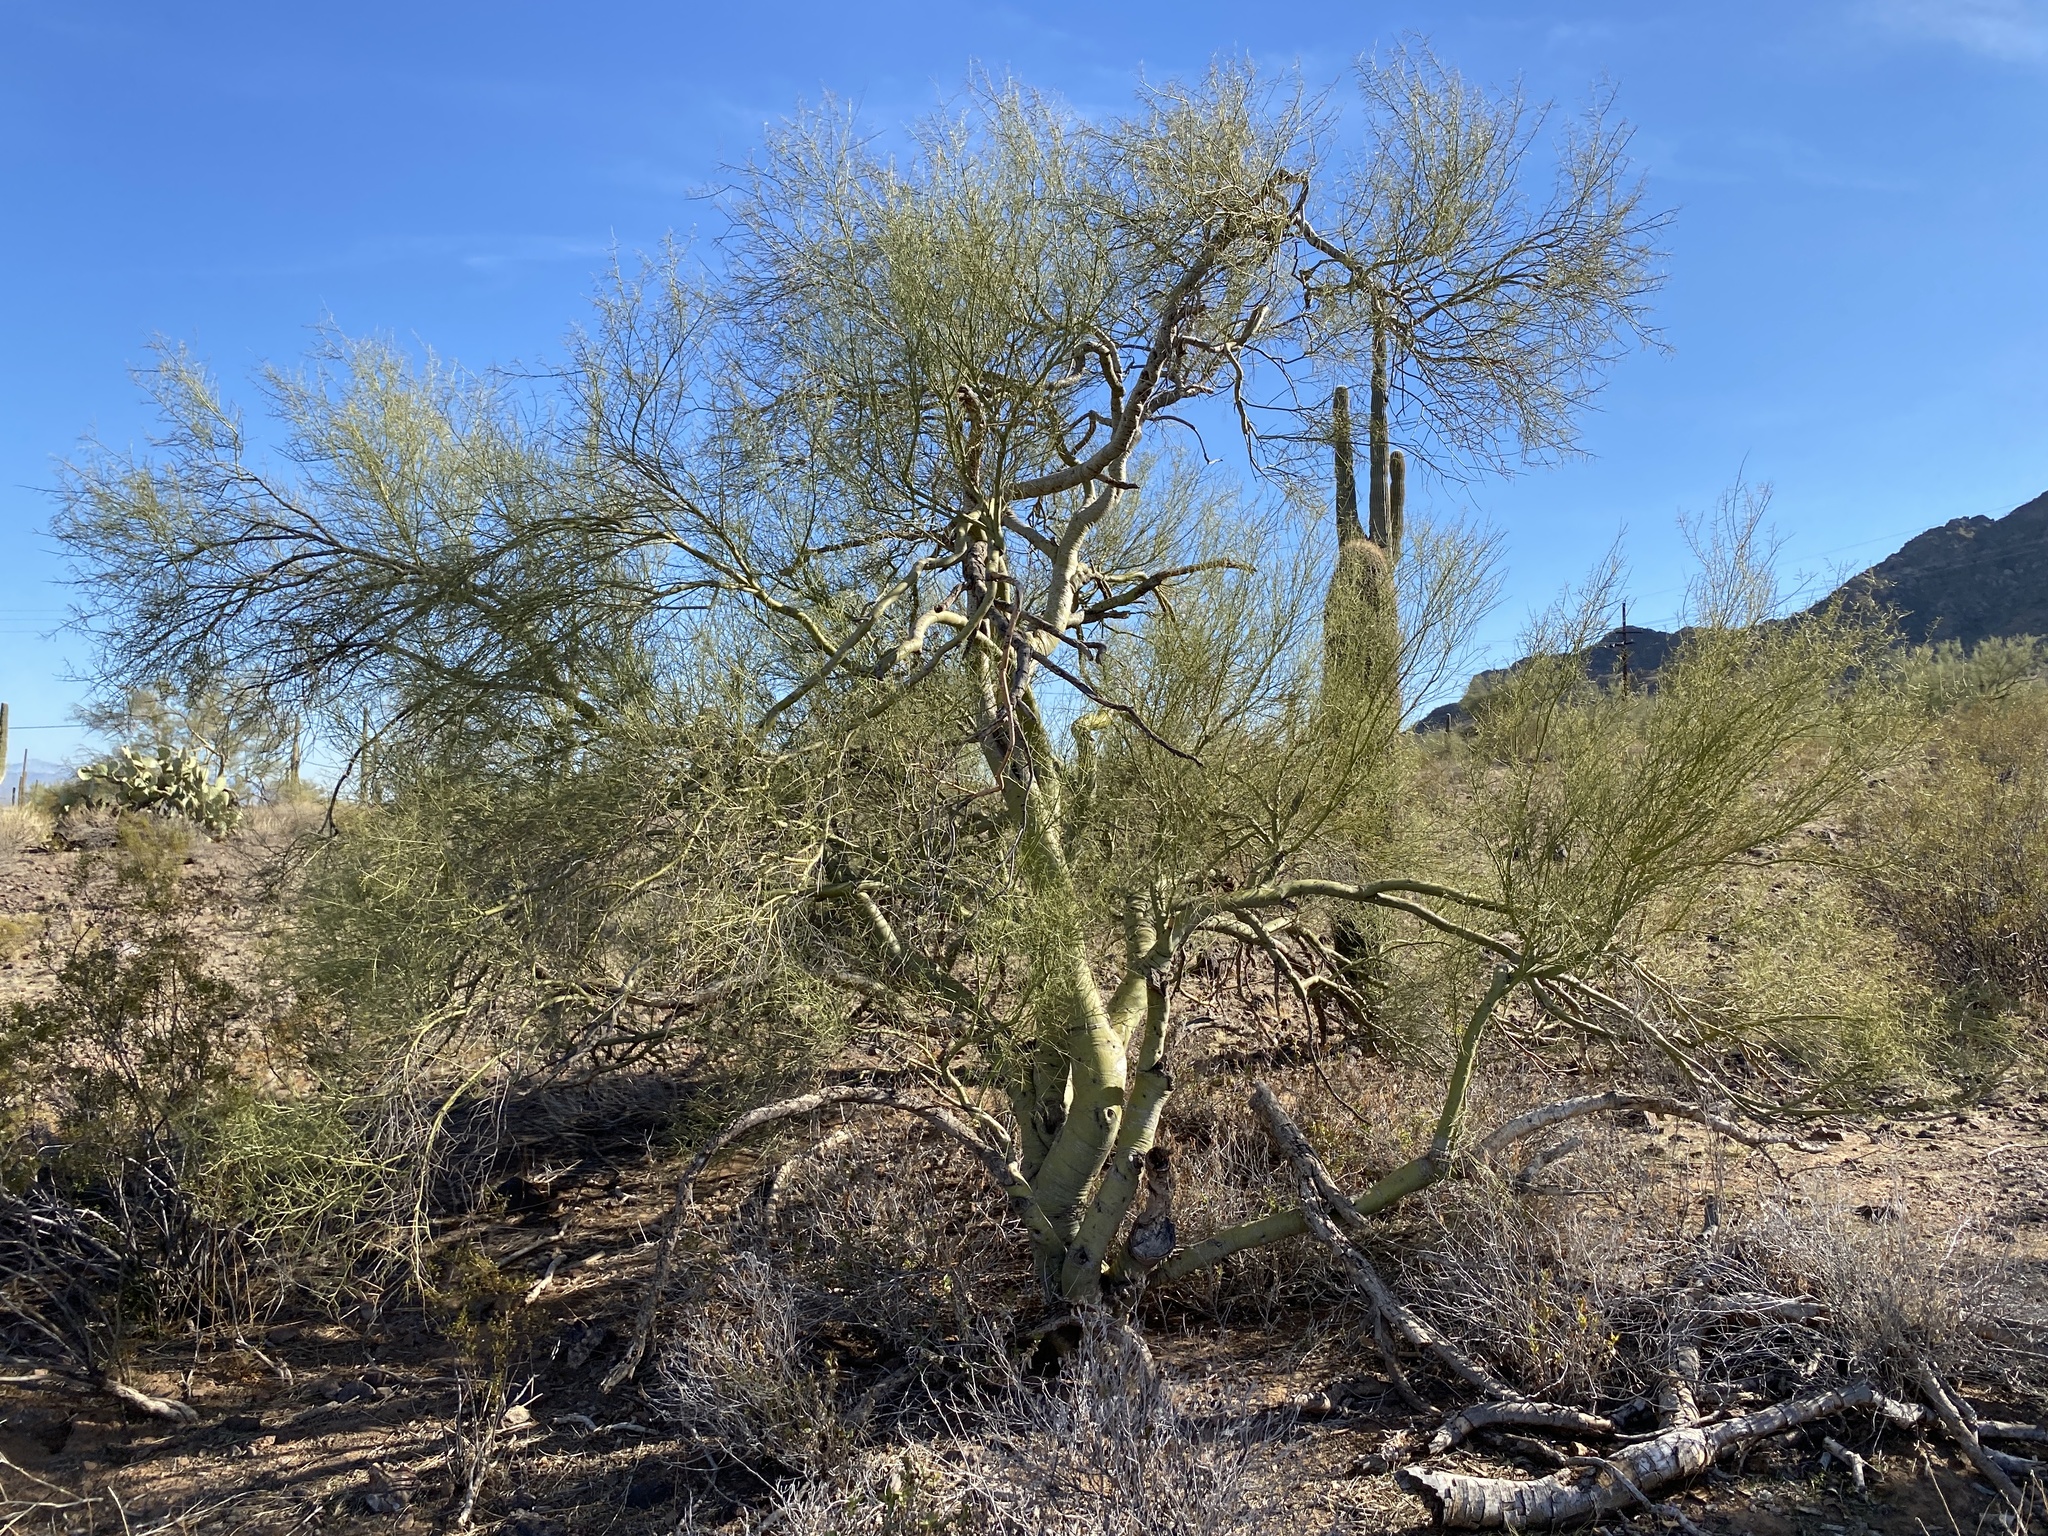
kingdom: Plantae
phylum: Tracheophyta
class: Magnoliopsida
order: Fabales
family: Fabaceae
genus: Parkinsonia
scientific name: Parkinsonia microphylla
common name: Yellow paloverde
